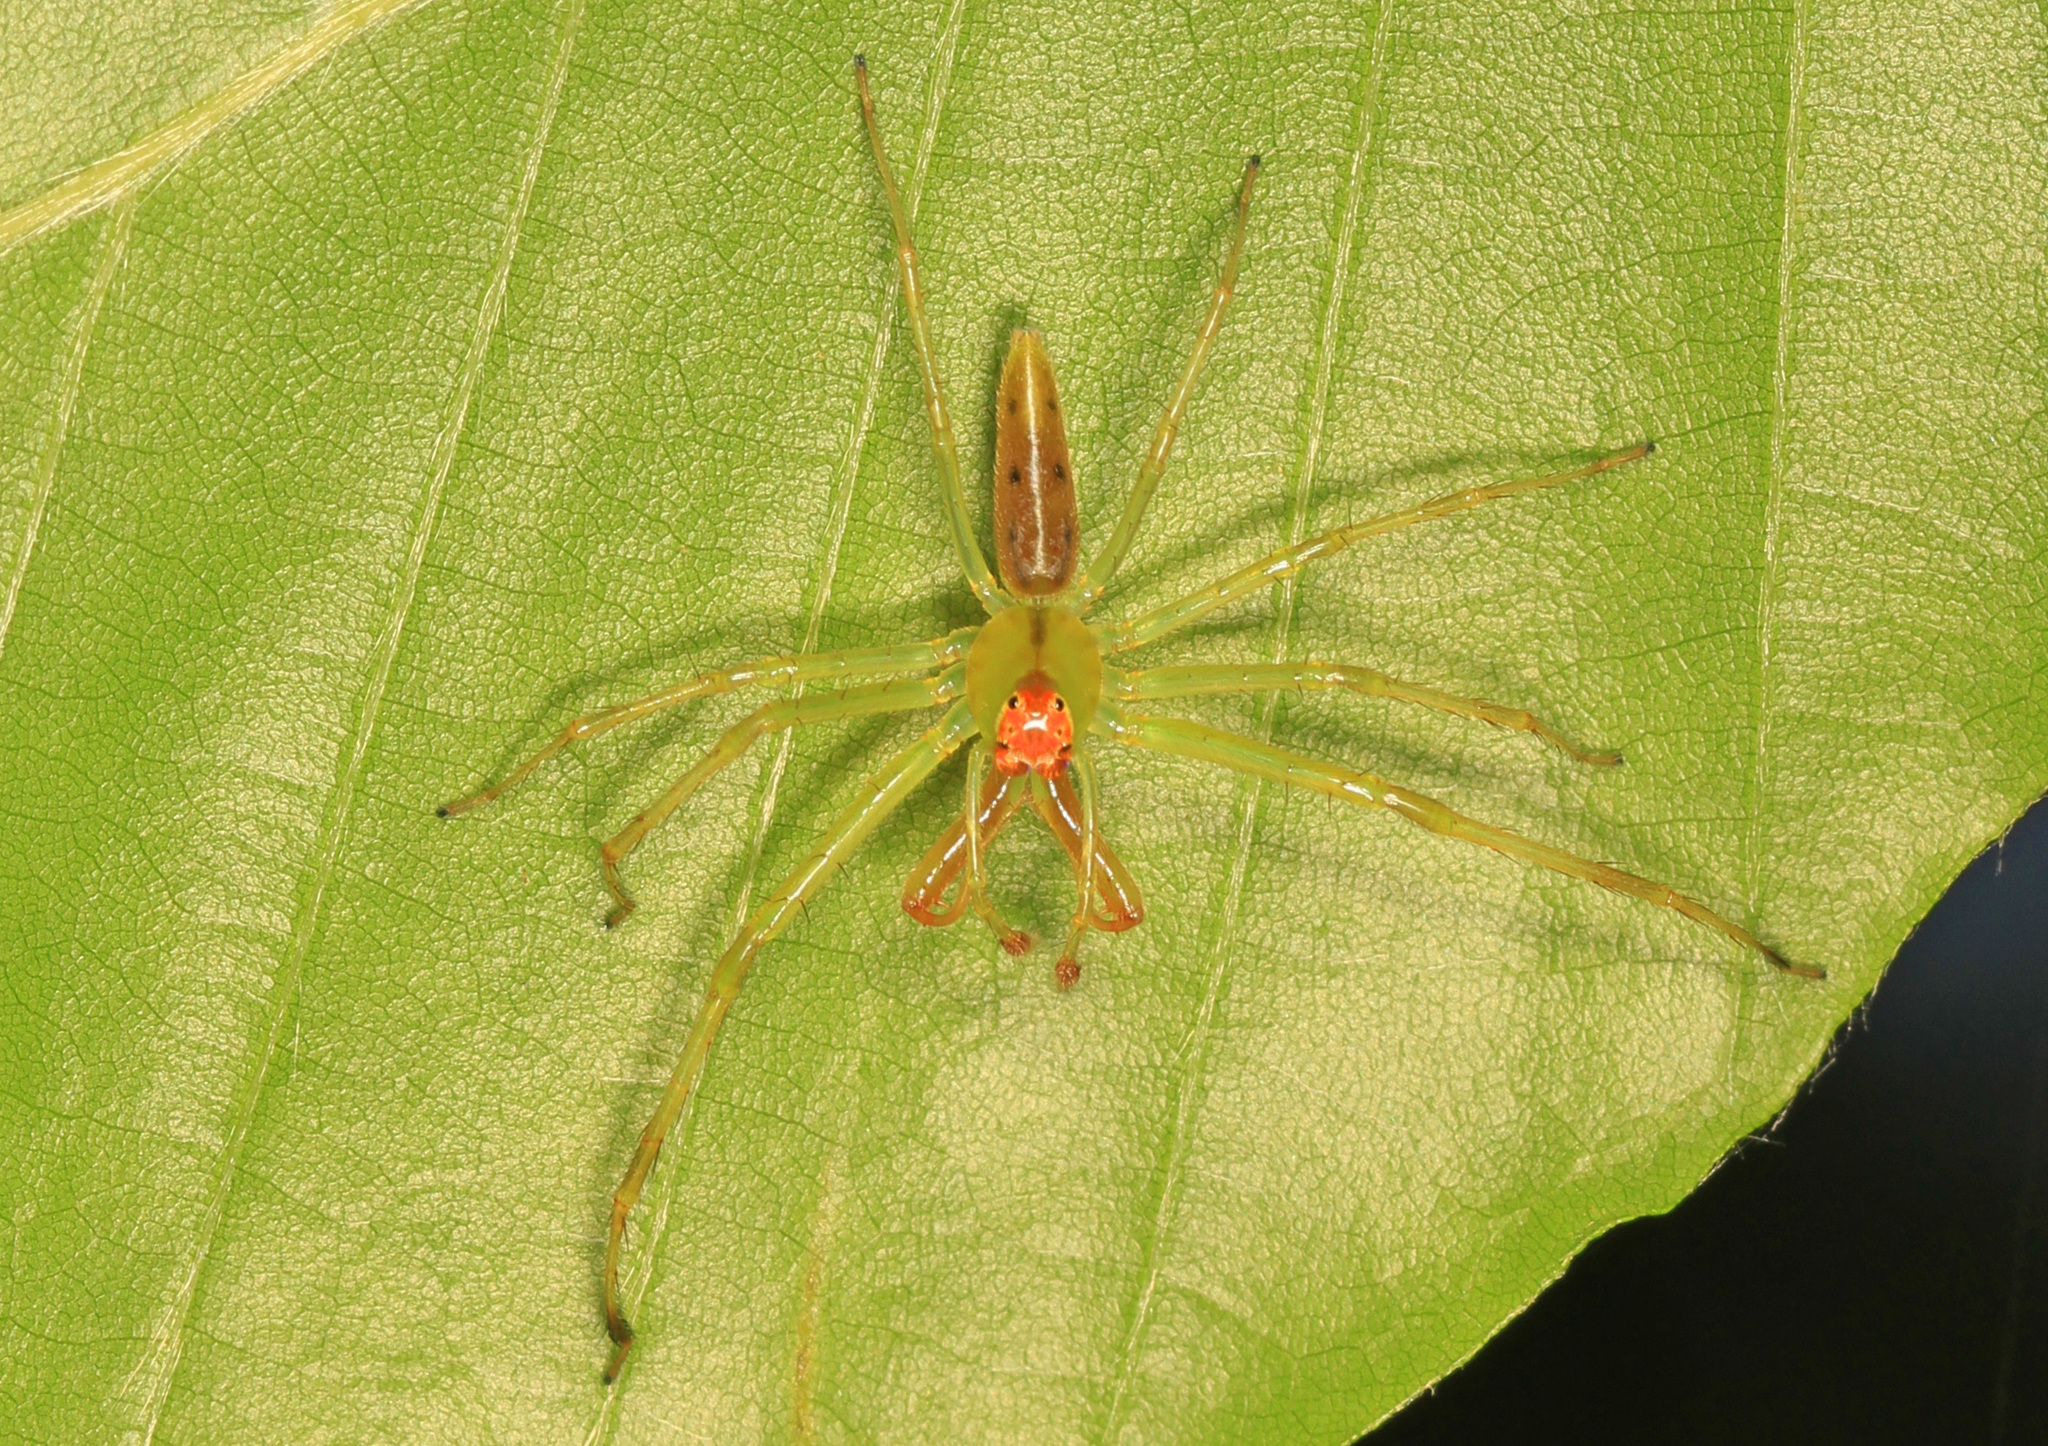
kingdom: Animalia
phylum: Arthropoda
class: Arachnida
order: Araneae
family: Salticidae
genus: Lyssomanes
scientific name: Lyssomanes viridis
